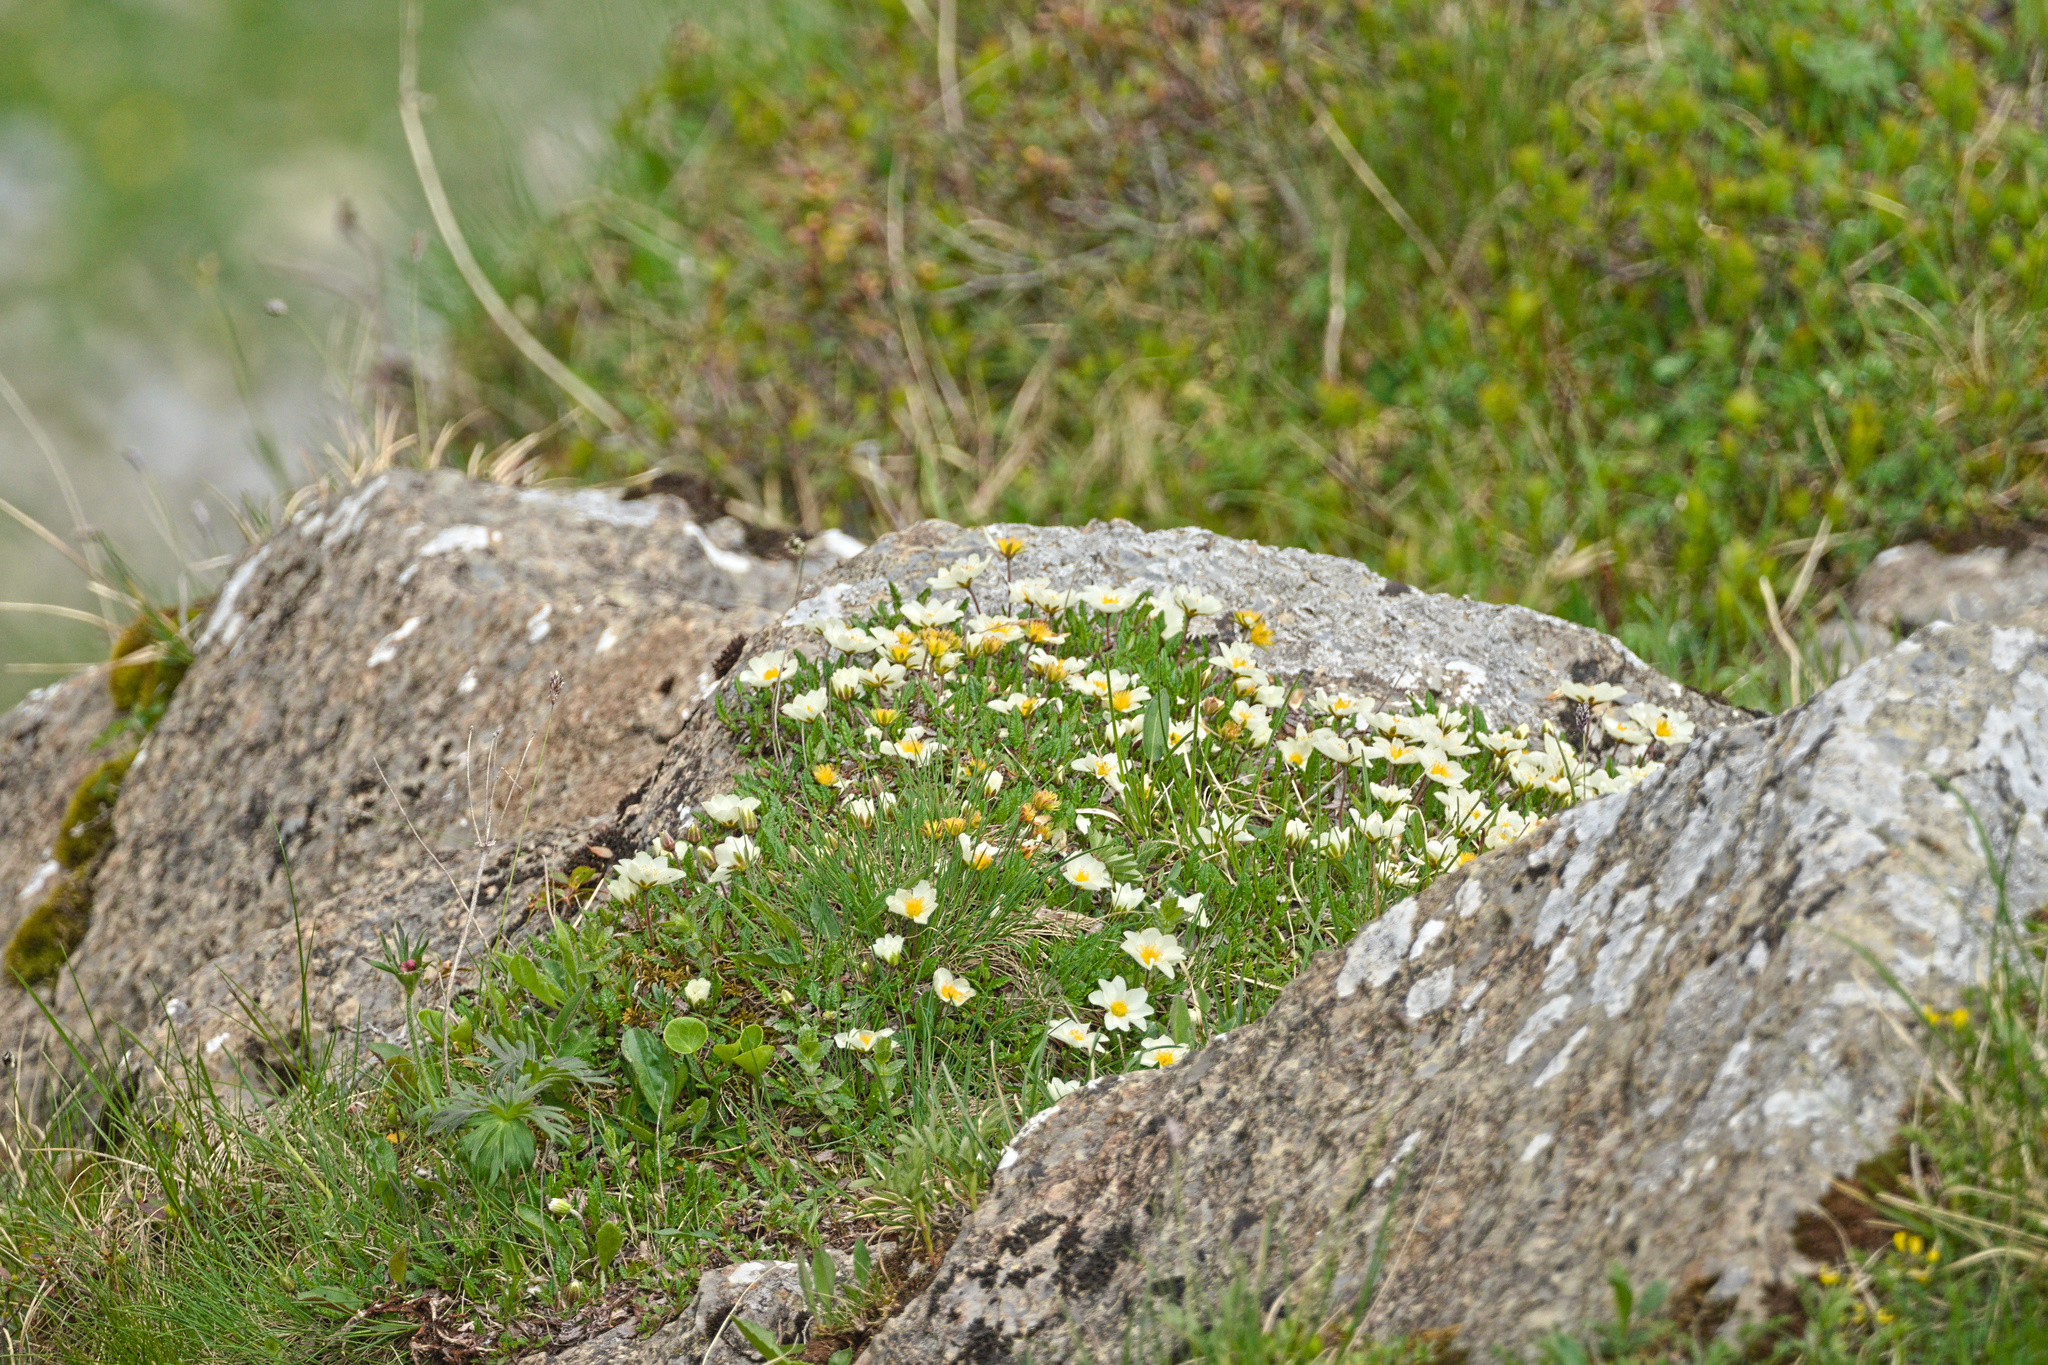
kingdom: Plantae
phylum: Tracheophyta
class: Magnoliopsida
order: Rosales
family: Rosaceae
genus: Dryas
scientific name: Dryas octopetala
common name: Eight-petal mountain-avens
